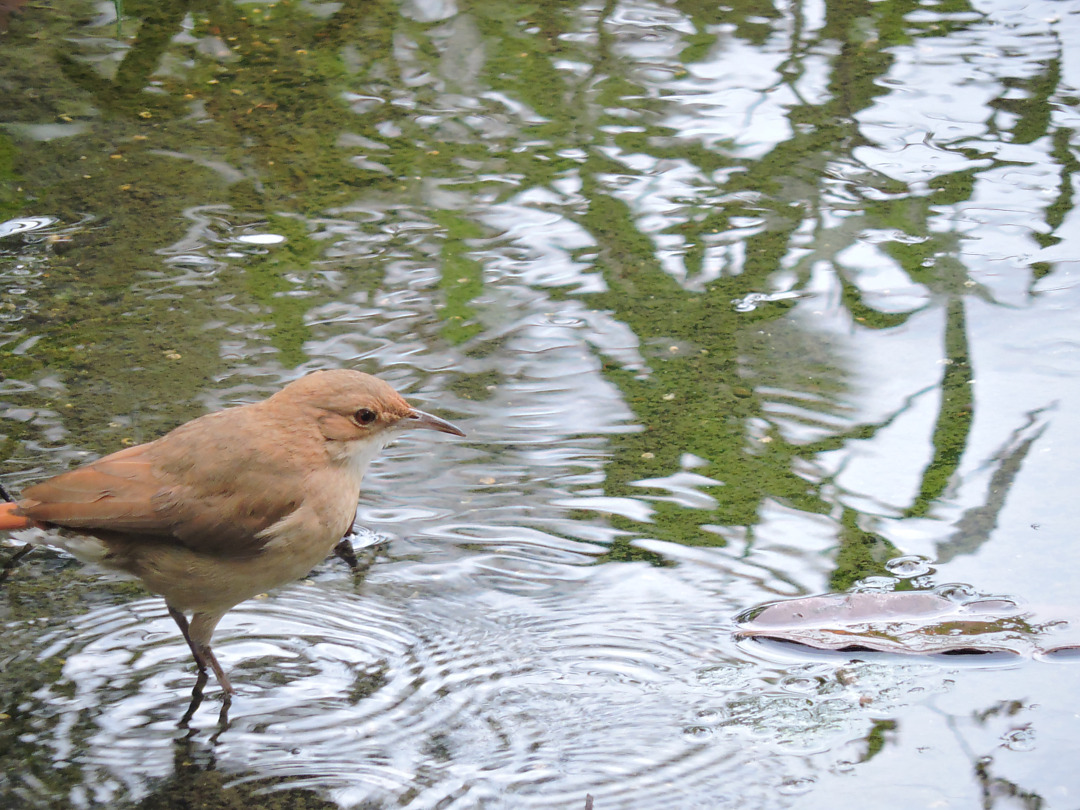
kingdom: Animalia
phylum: Chordata
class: Aves
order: Passeriformes
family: Furnariidae
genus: Furnarius
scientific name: Furnarius rufus
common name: Rufous hornero
